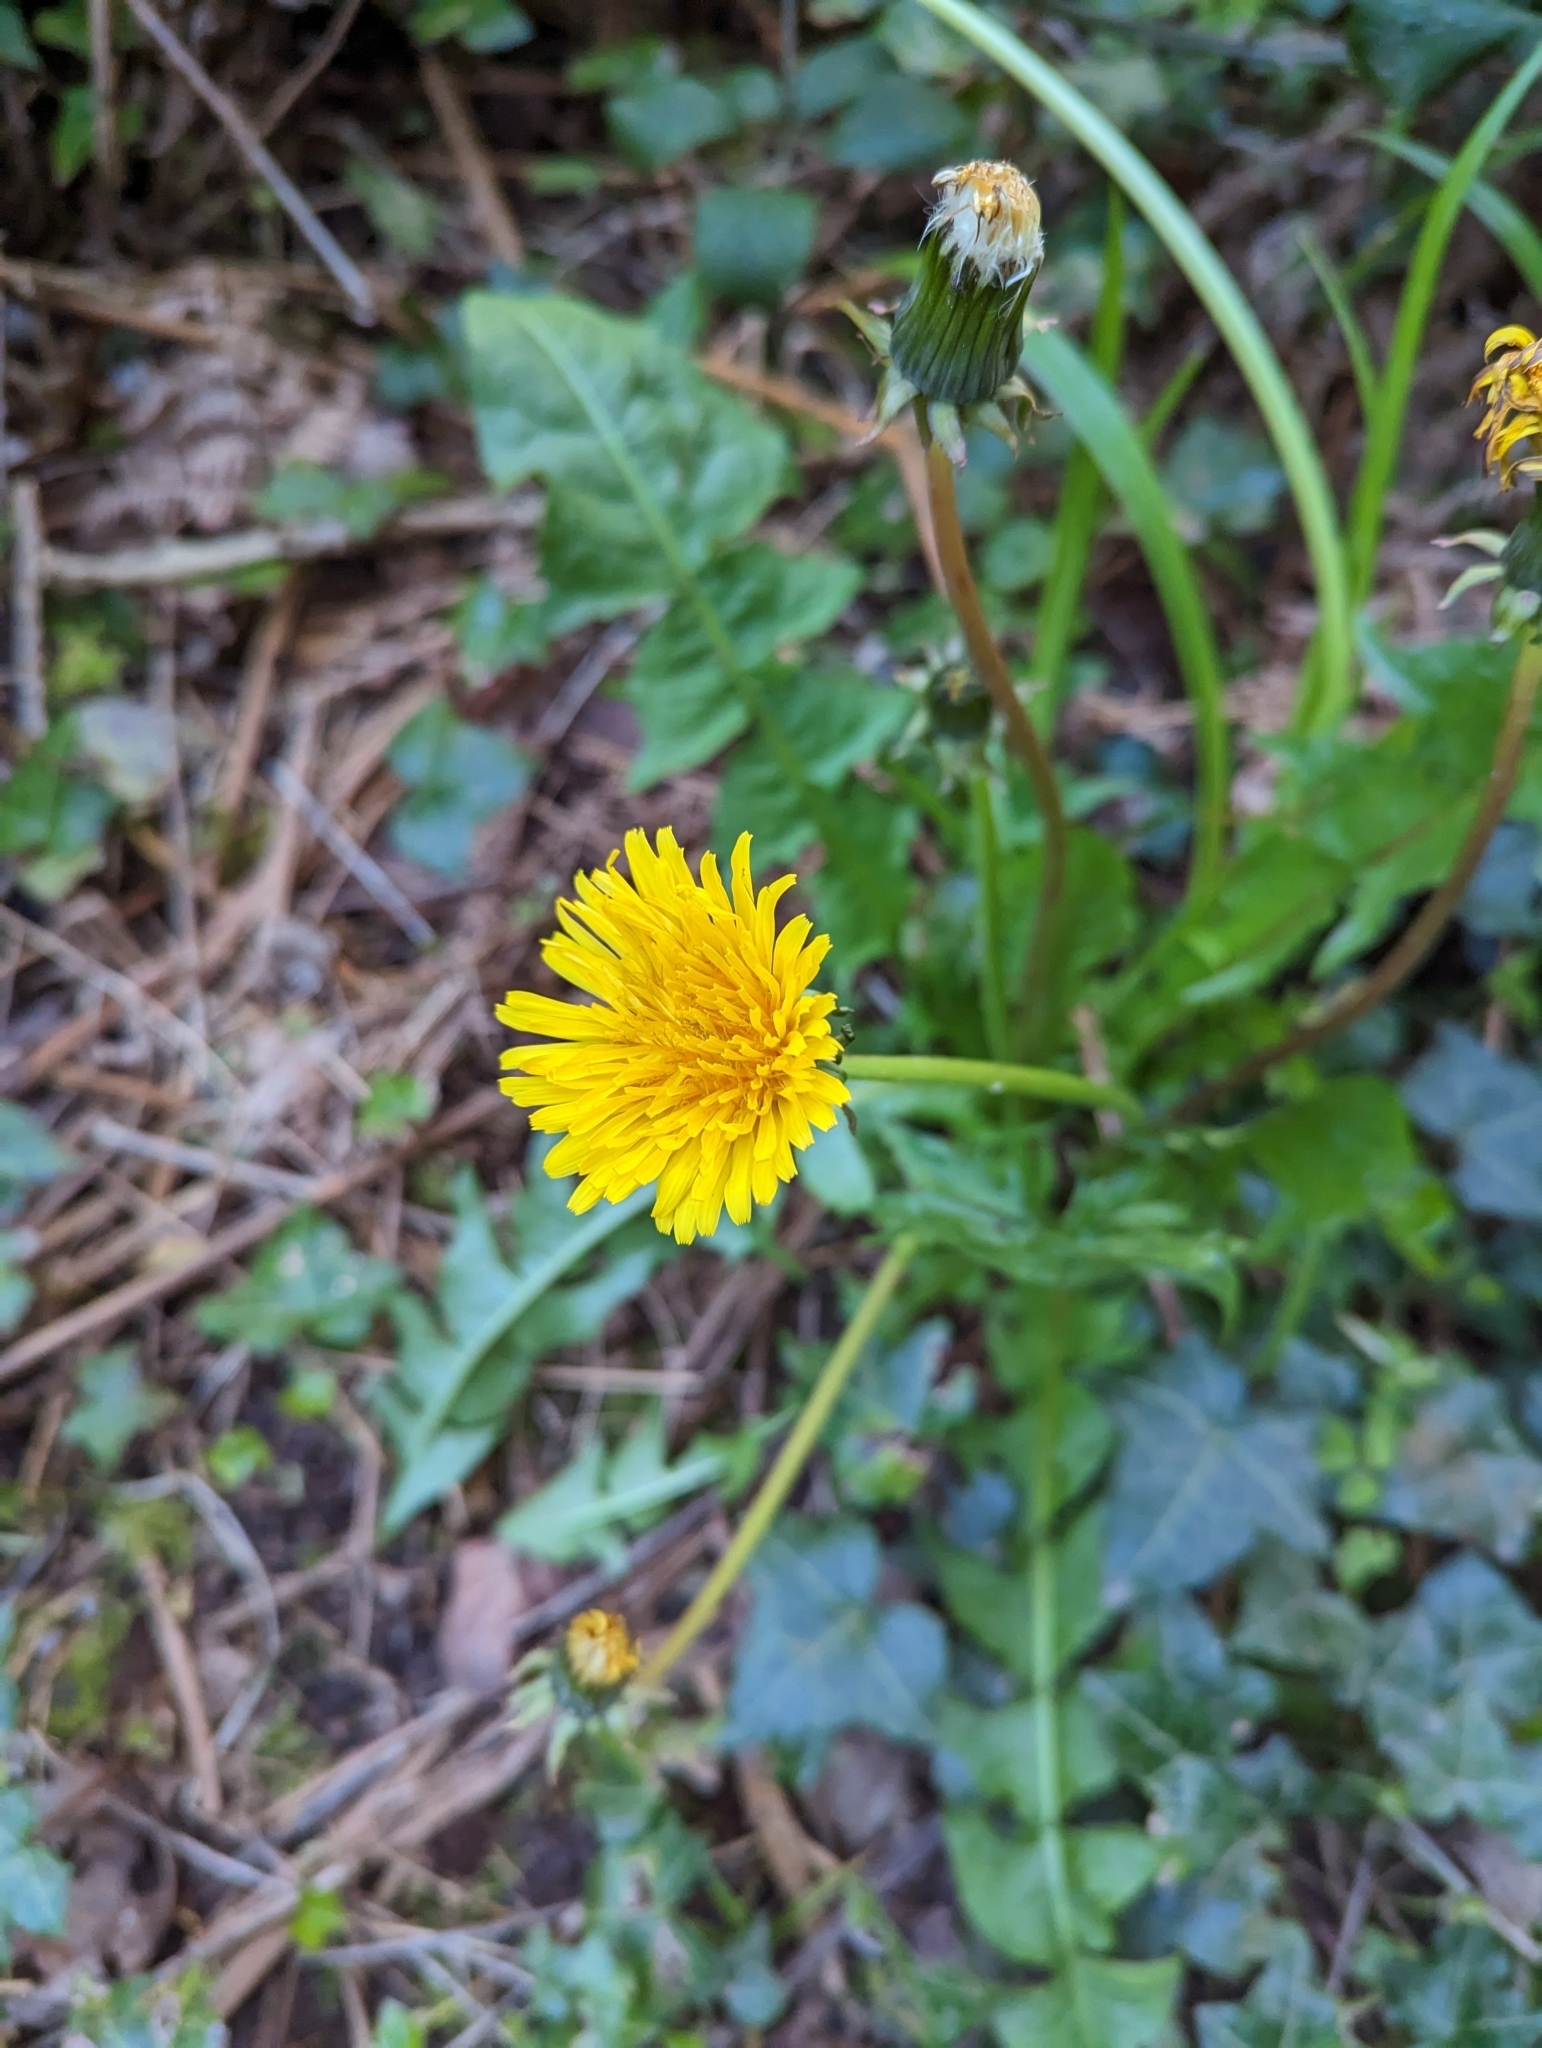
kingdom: Plantae
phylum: Tracheophyta
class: Magnoliopsida
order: Asterales
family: Asteraceae
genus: Taraxacum
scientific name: Taraxacum officinale
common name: Common dandelion
